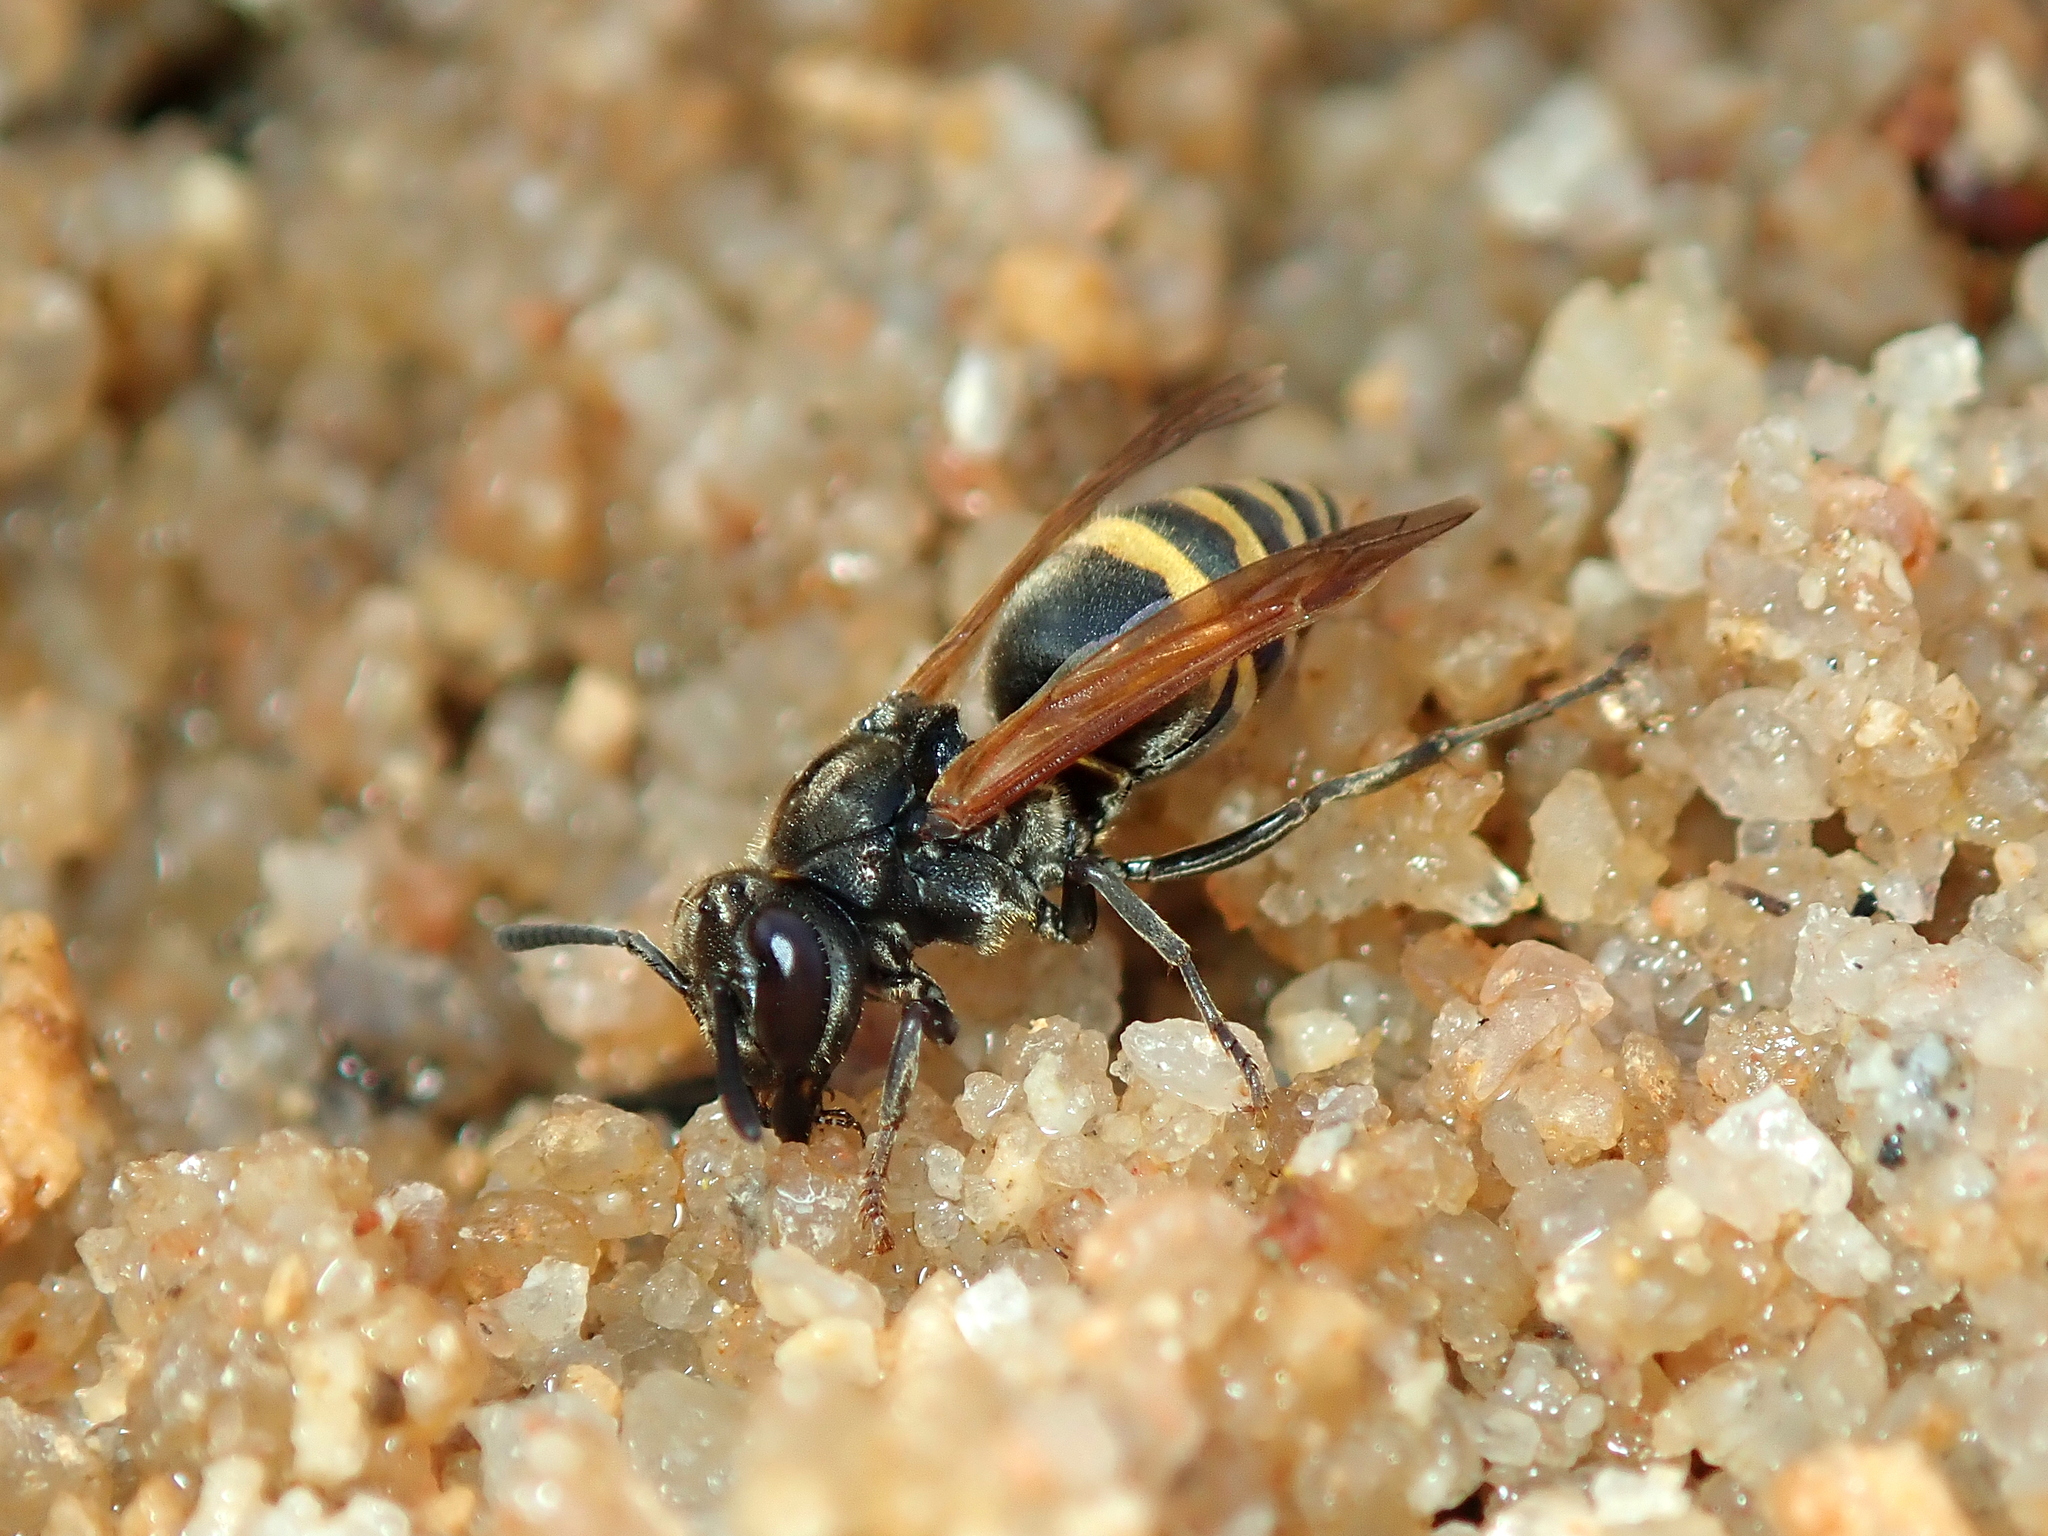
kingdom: Animalia
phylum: Arthropoda
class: Insecta
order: Hymenoptera
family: Vespidae
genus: Brachygastra
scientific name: Brachygastra lecheguana
